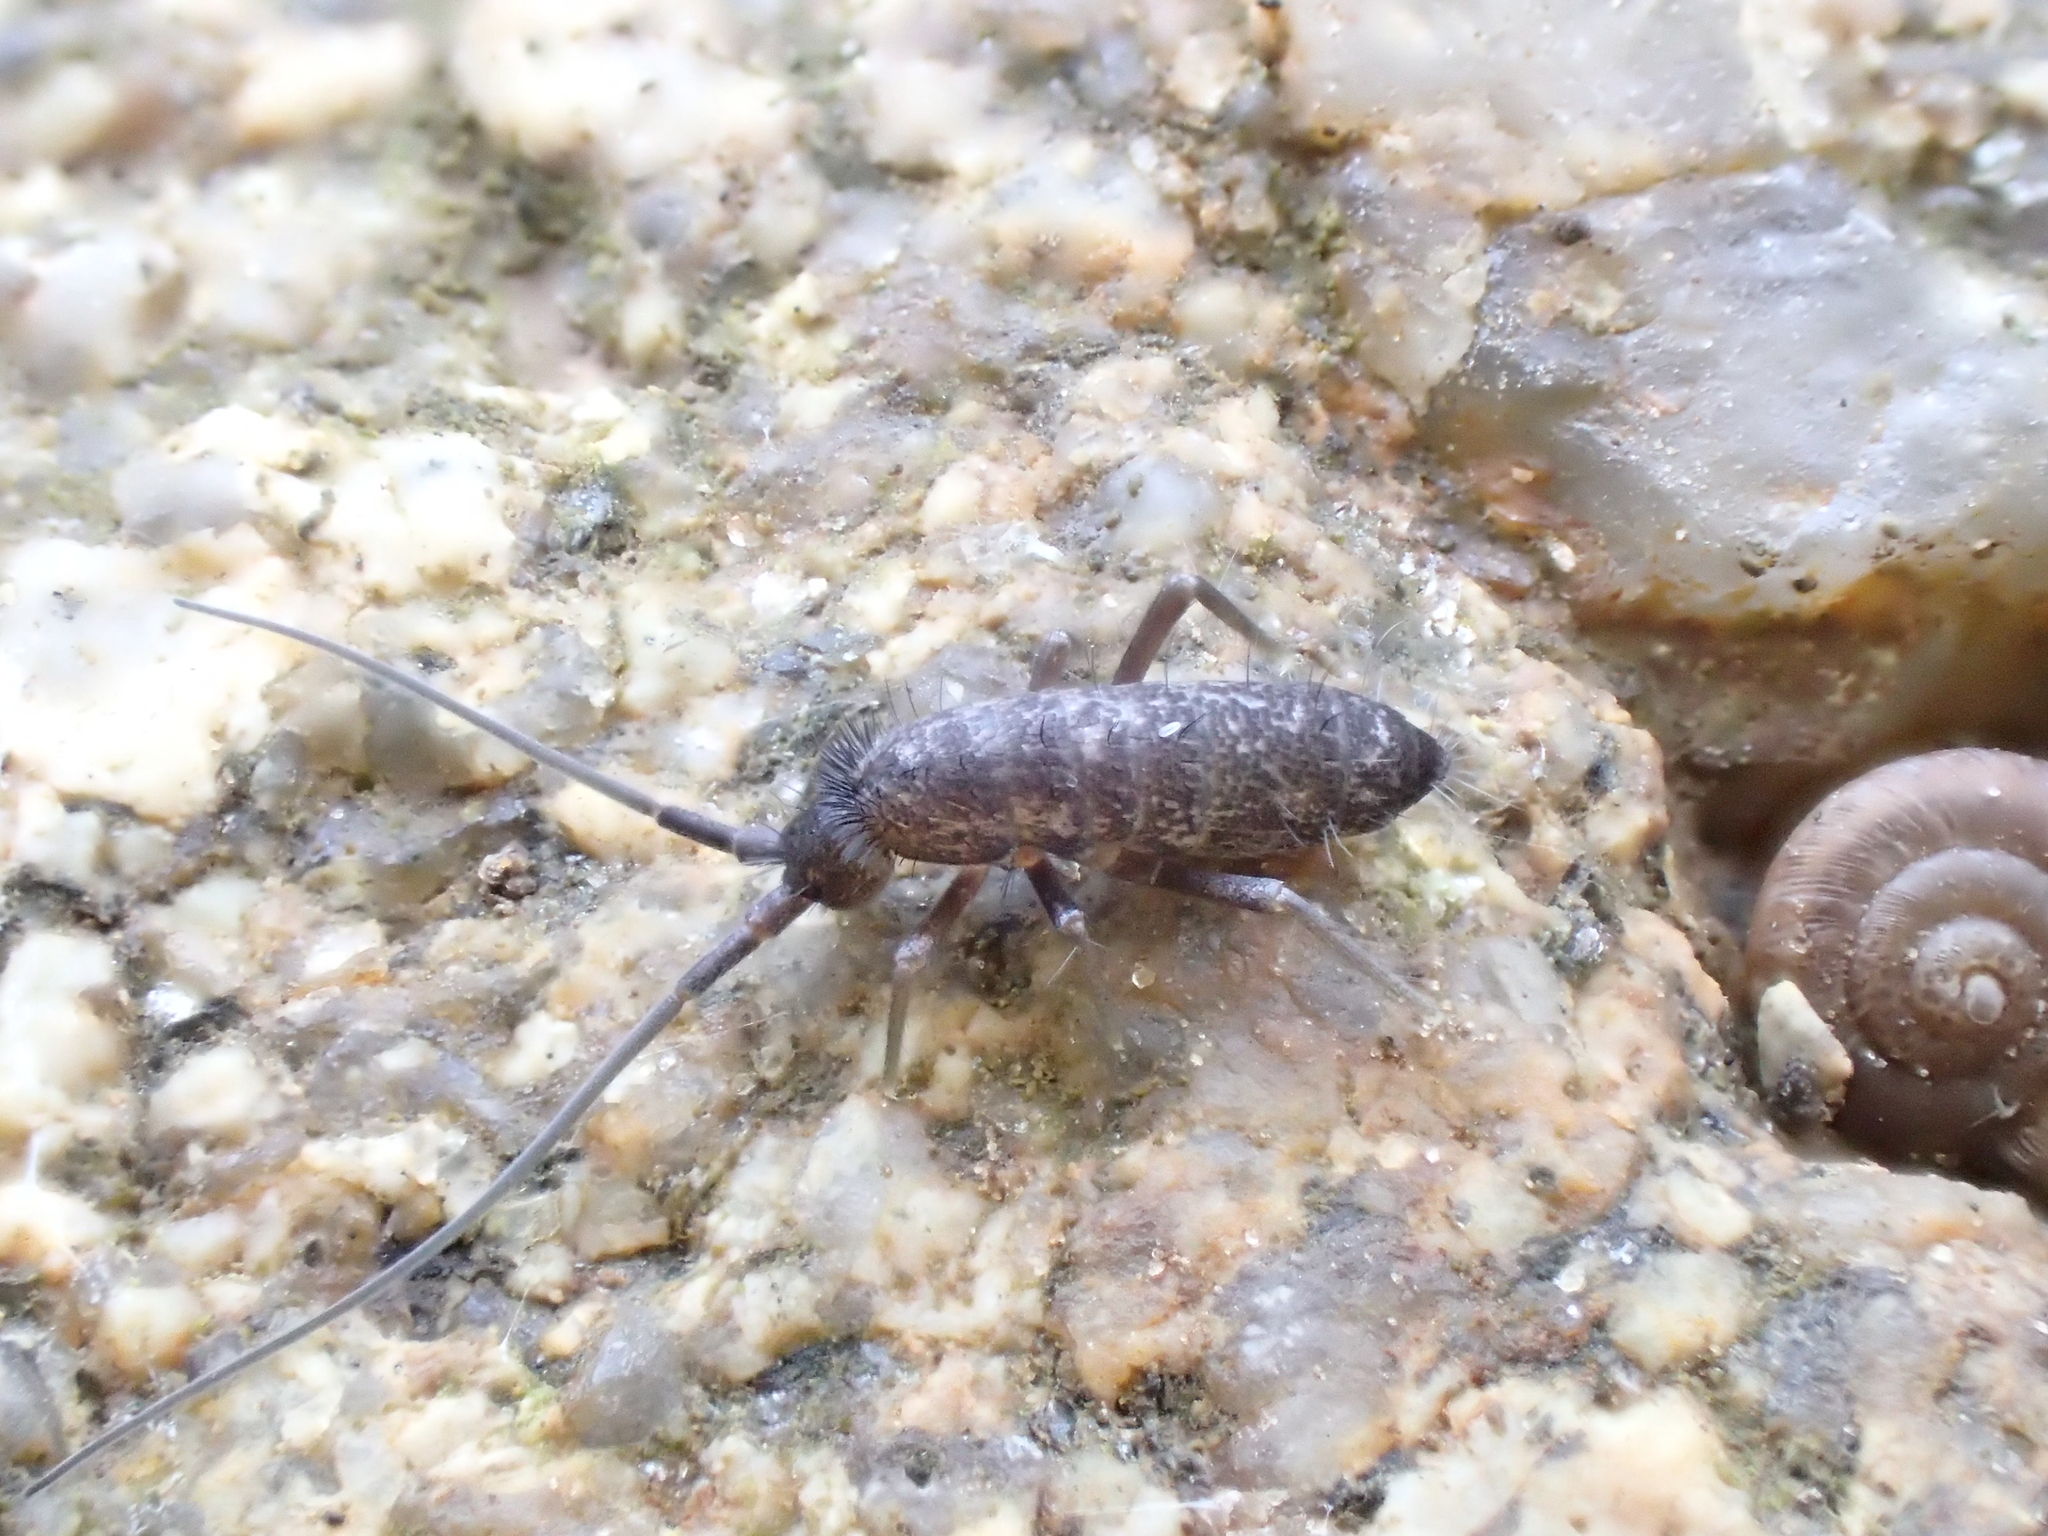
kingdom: Animalia
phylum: Arthropoda
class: Collembola
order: Entomobryomorpha
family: Tomoceridae
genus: Pogonognathellus
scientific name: Pogonognathellus longicornis
